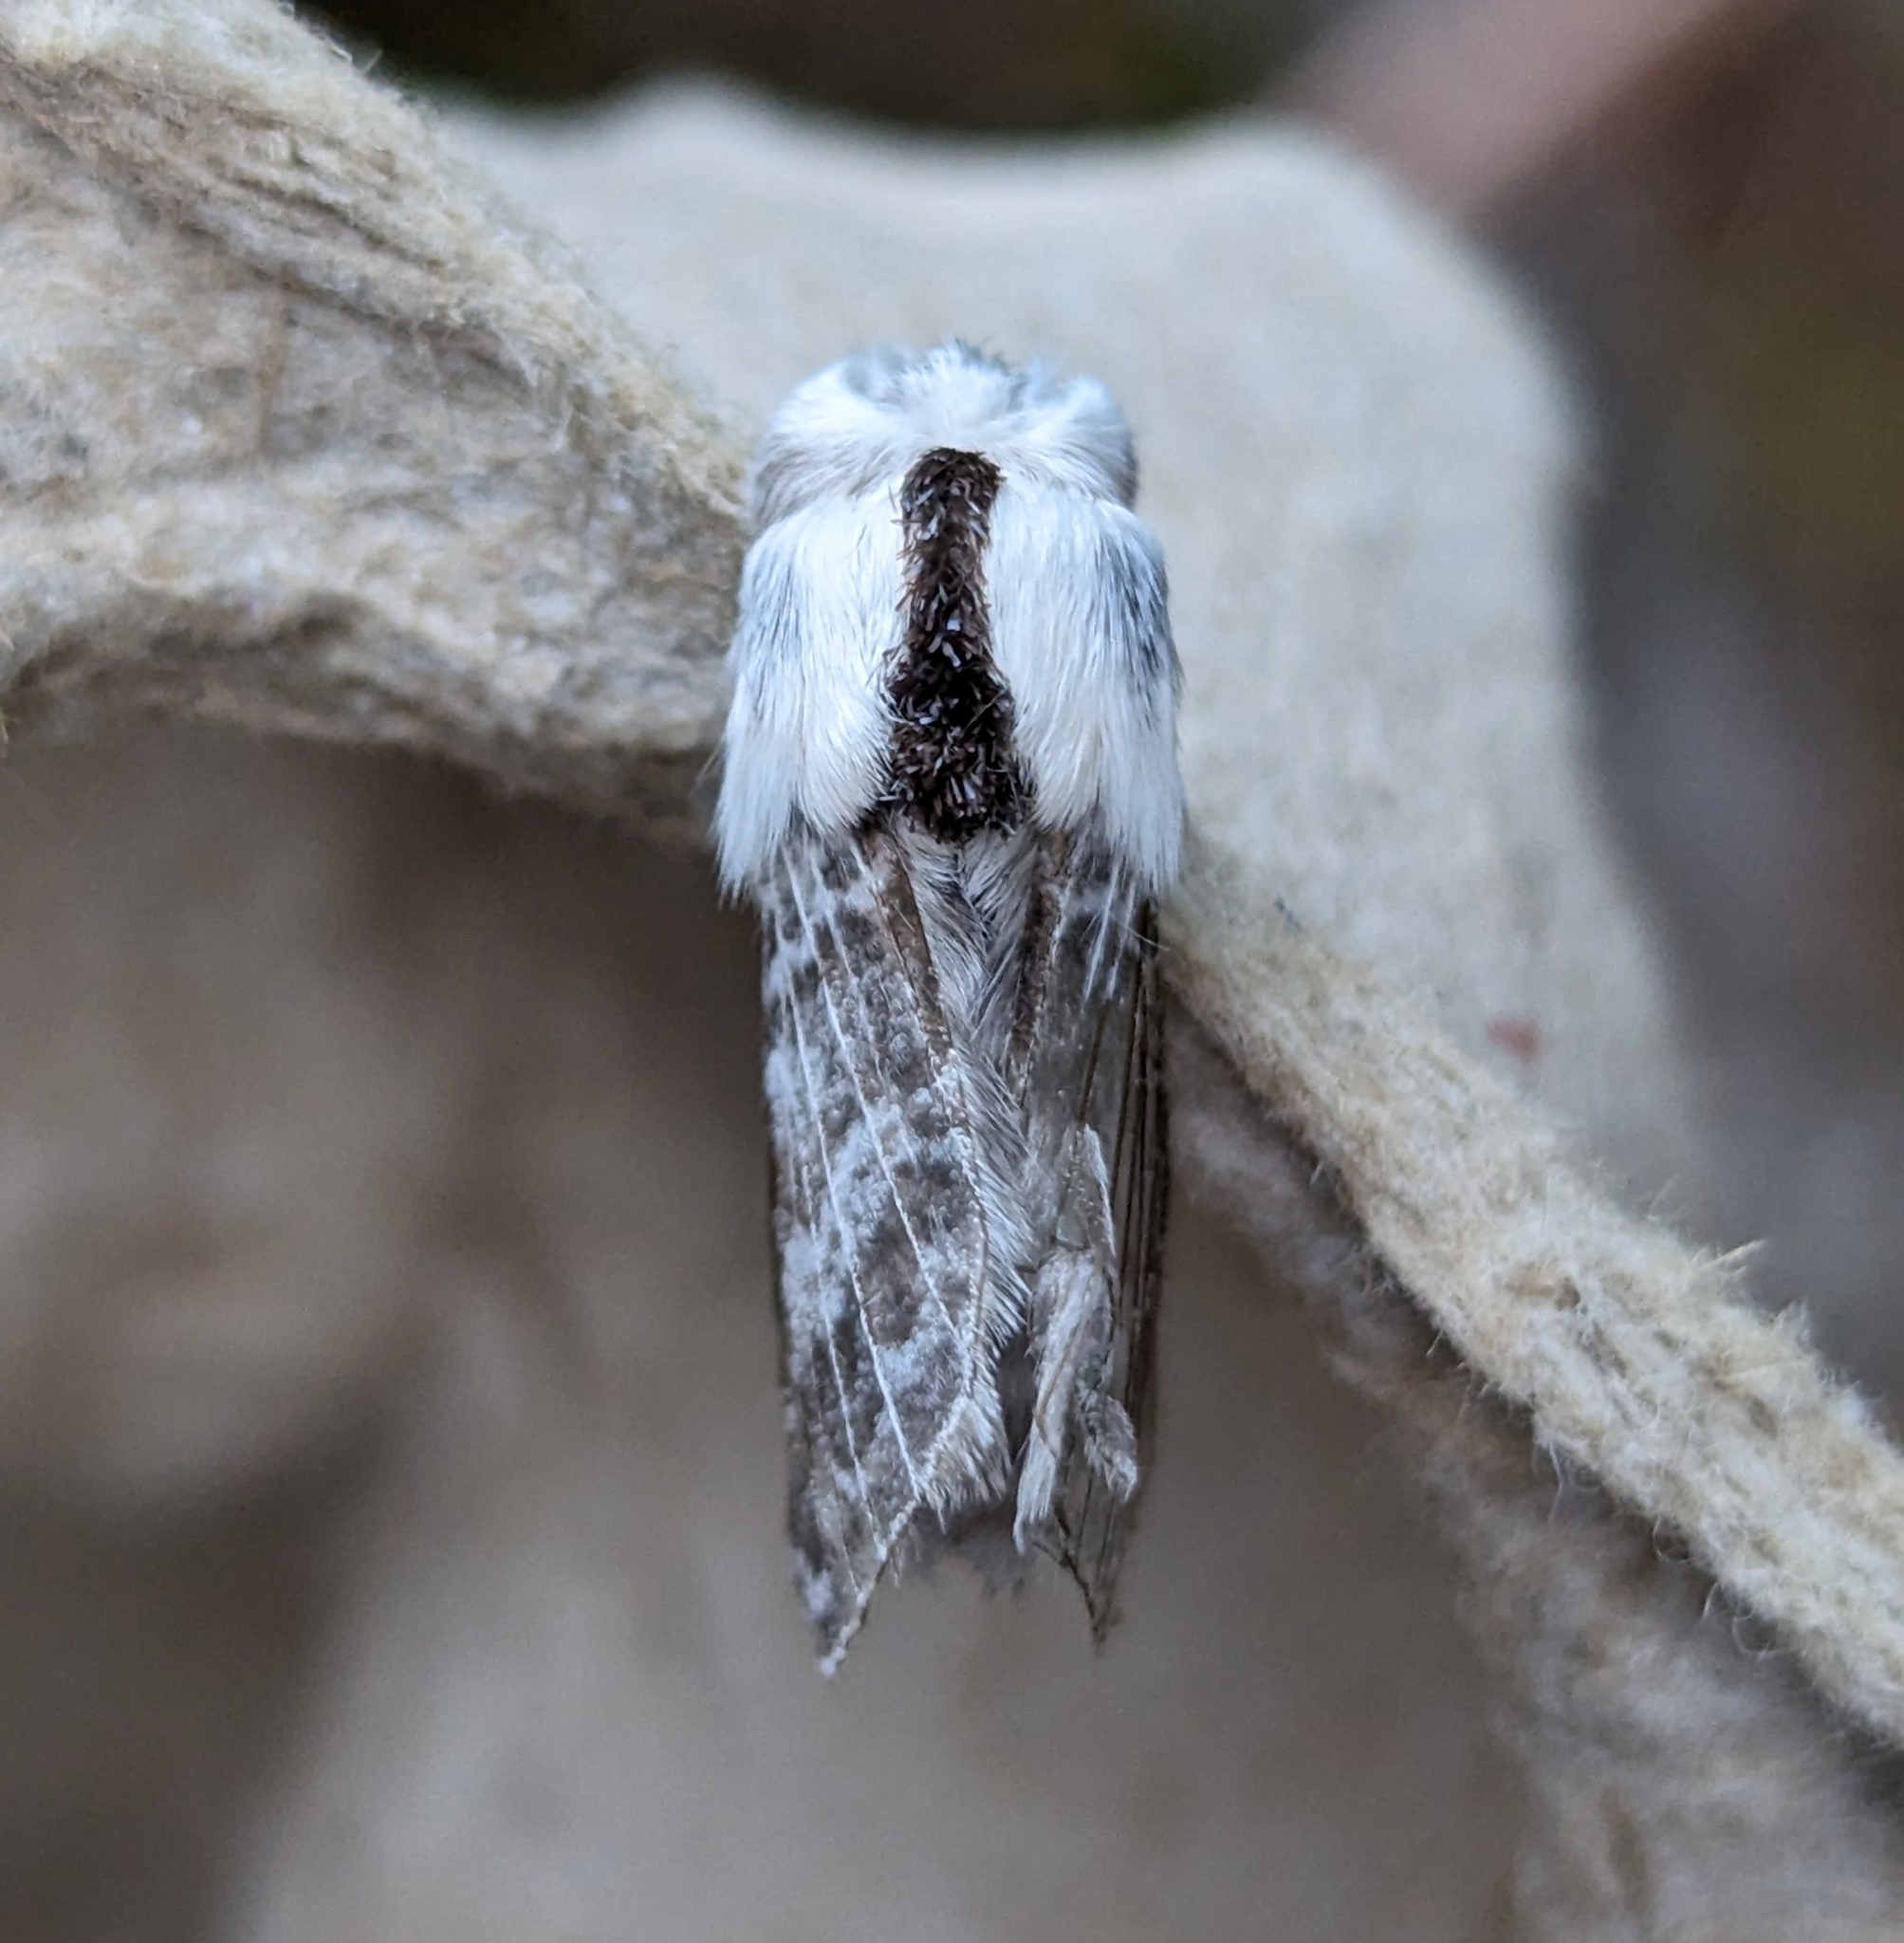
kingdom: Animalia
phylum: Arthropoda
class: Insecta
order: Lepidoptera
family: Lasiocampidae
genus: Tolype
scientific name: Tolype dayi
